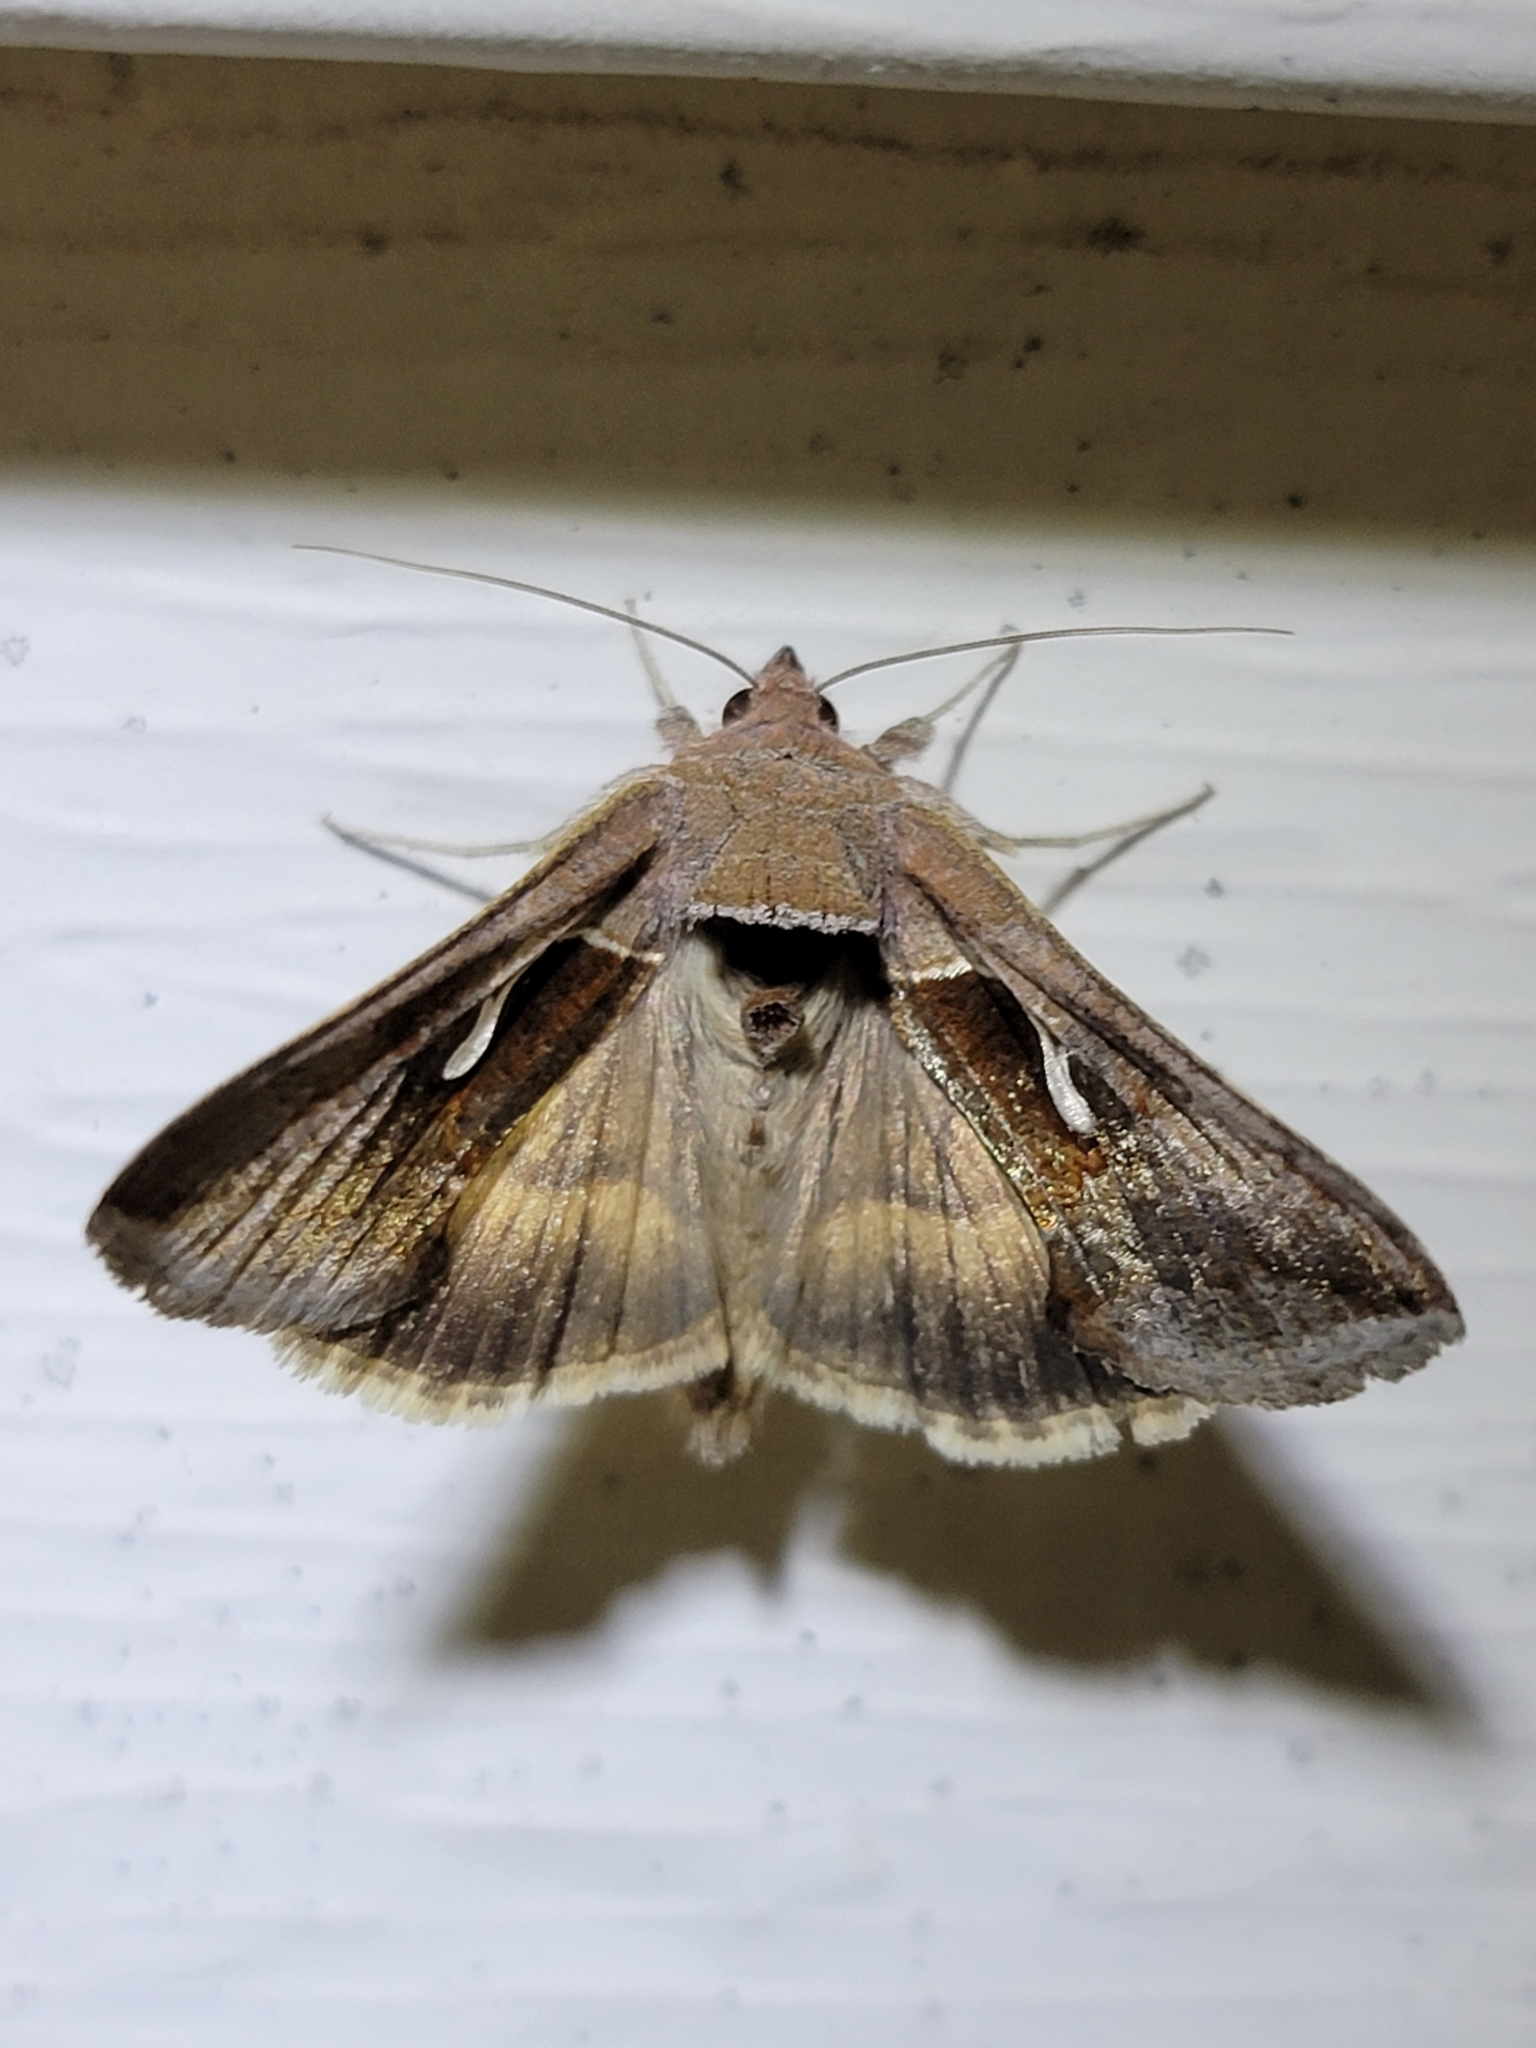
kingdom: Animalia
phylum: Arthropoda
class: Insecta
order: Lepidoptera
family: Noctuidae
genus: Anagrapha
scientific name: Anagrapha falcifera
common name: Celery looper
